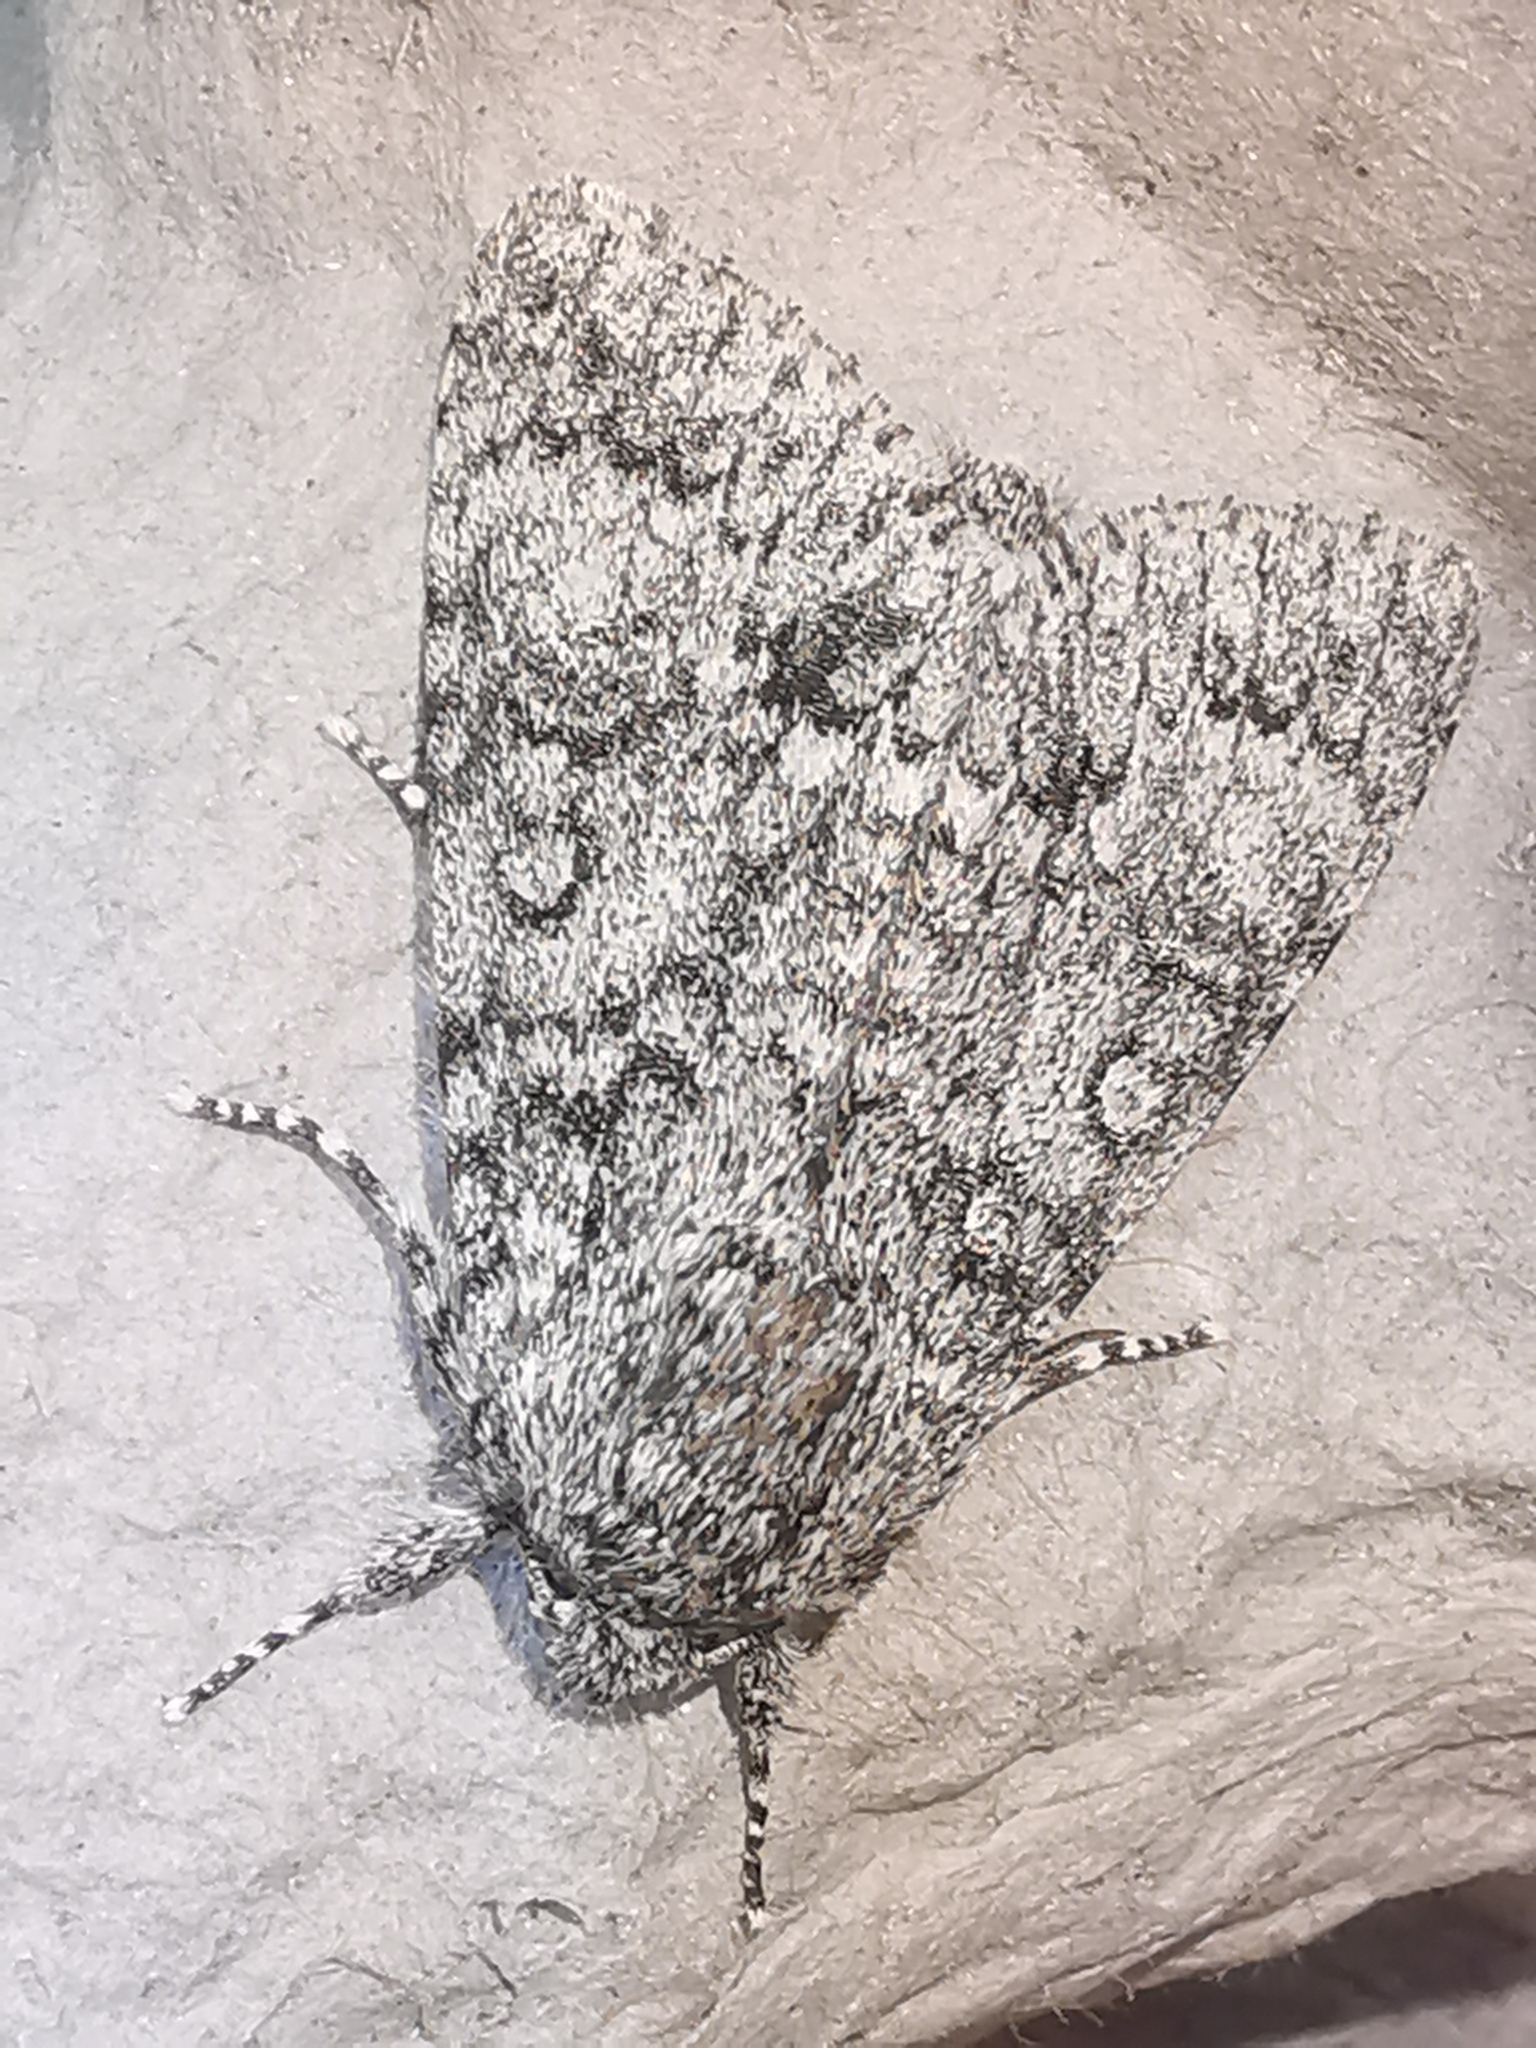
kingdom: Animalia
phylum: Arthropoda
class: Insecta
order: Lepidoptera
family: Noctuidae
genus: Acronicta
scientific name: Acronicta megacephala
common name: Poplar grey
